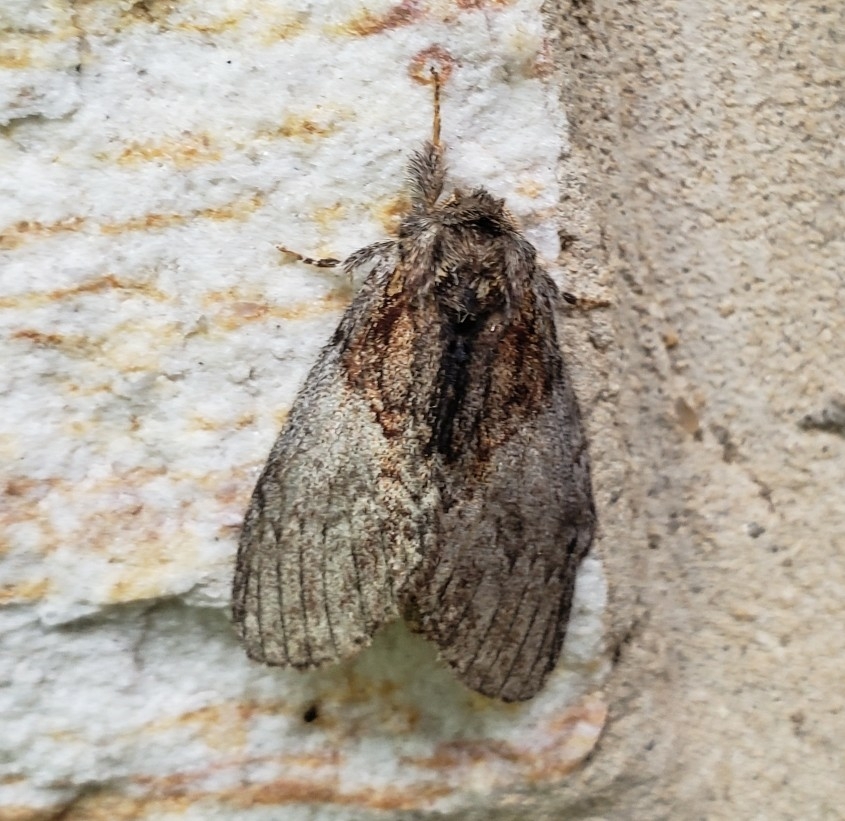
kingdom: Animalia
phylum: Arthropoda
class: Insecta
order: Lepidoptera
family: Notodontidae
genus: Peridea
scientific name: Peridea basitriens
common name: Oval-based prominent
